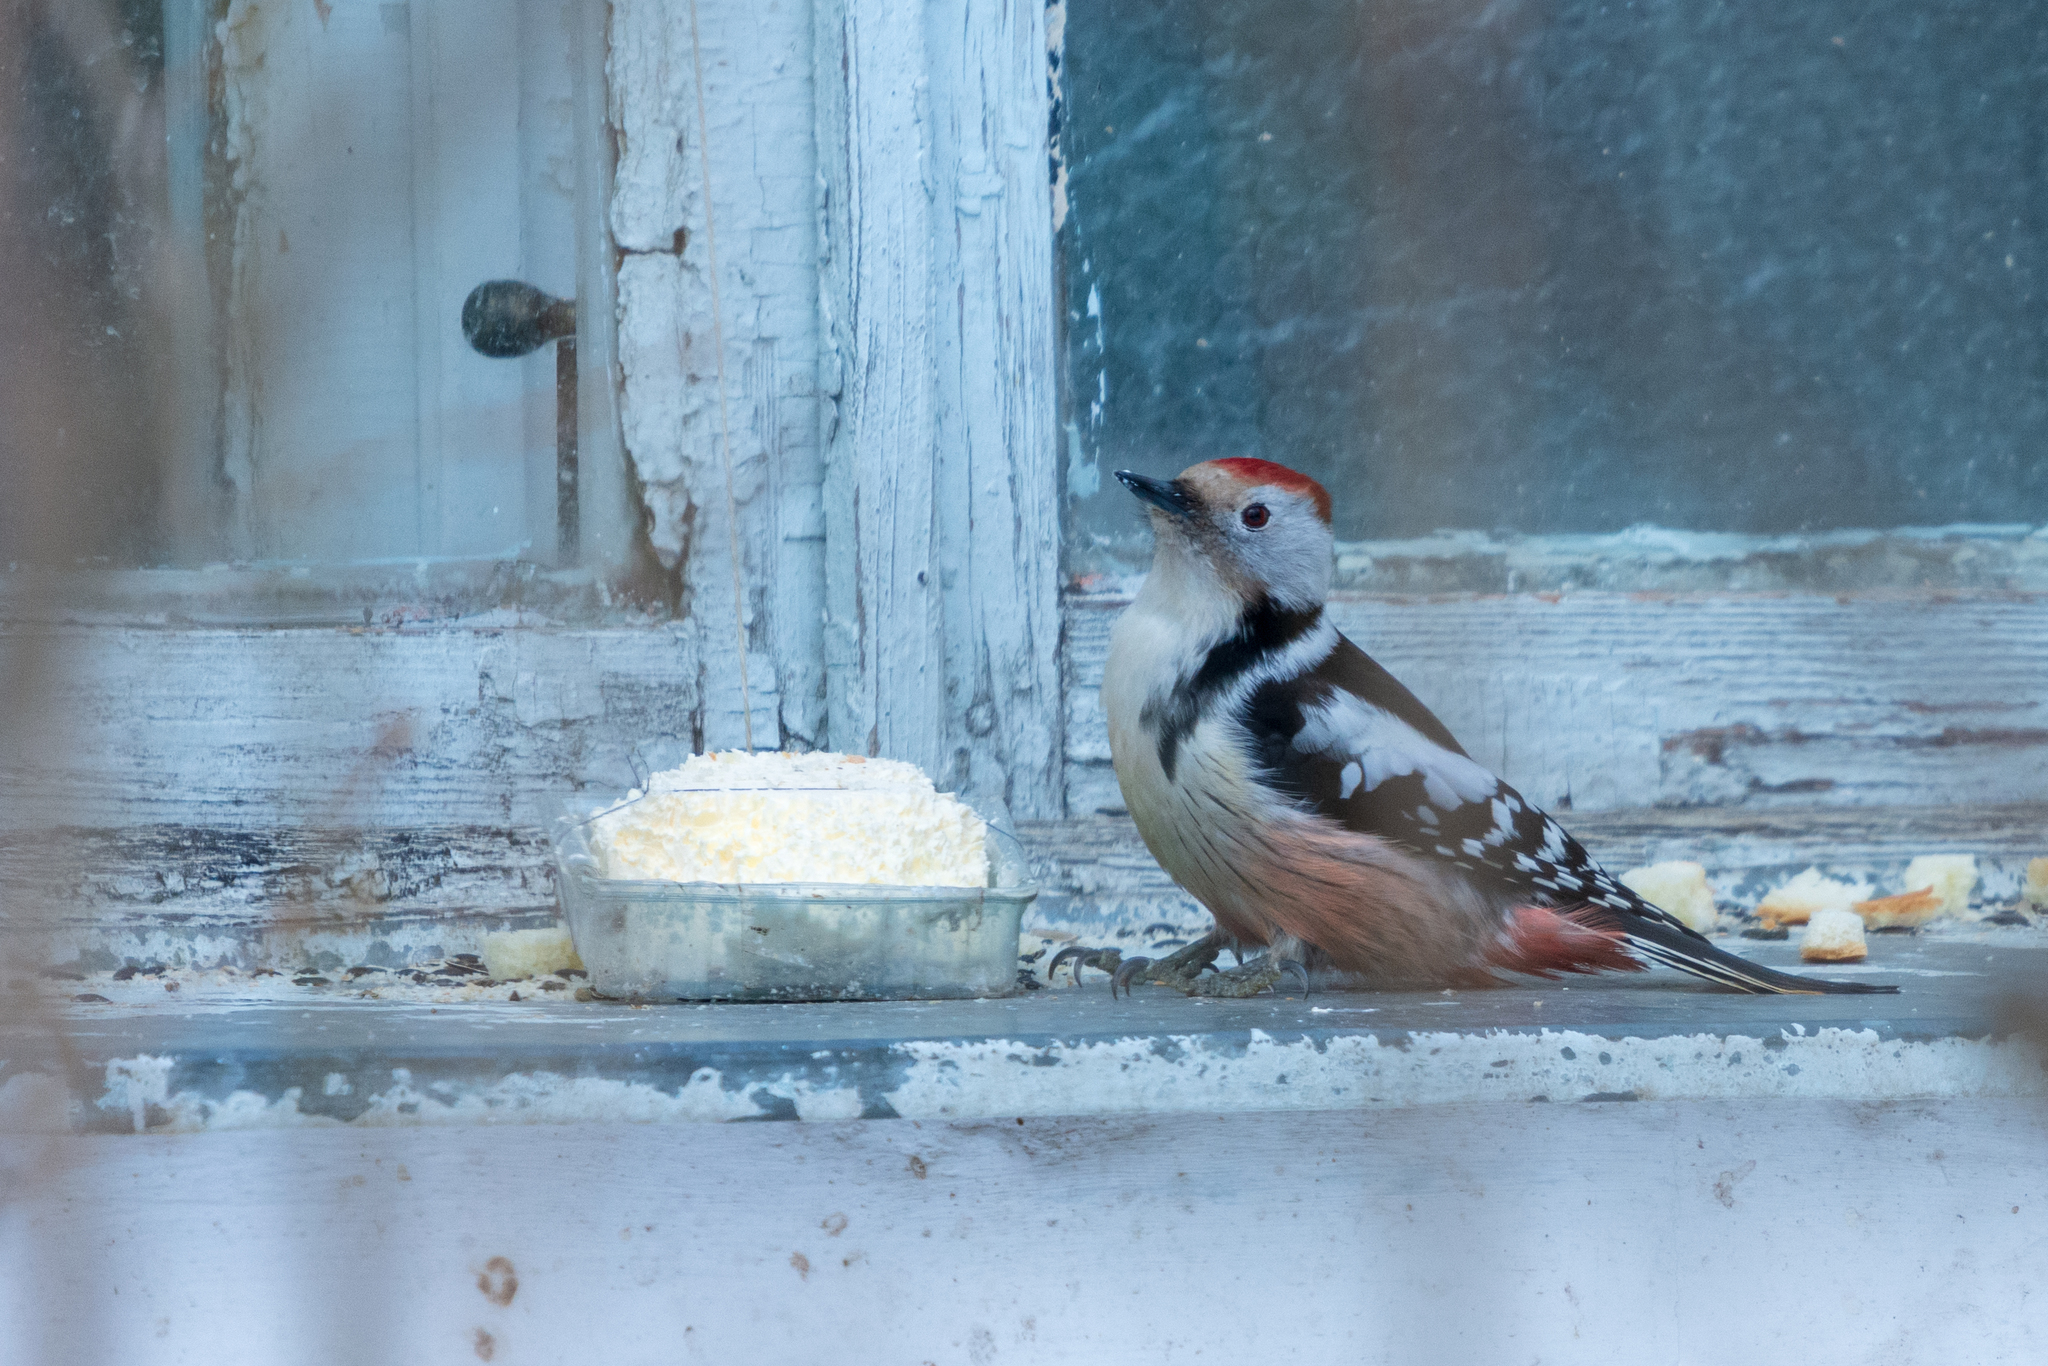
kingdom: Animalia
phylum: Chordata
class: Aves
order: Piciformes
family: Picidae
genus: Dendrocoptes
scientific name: Dendrocoptes medius
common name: Middle spotted woodpecker
